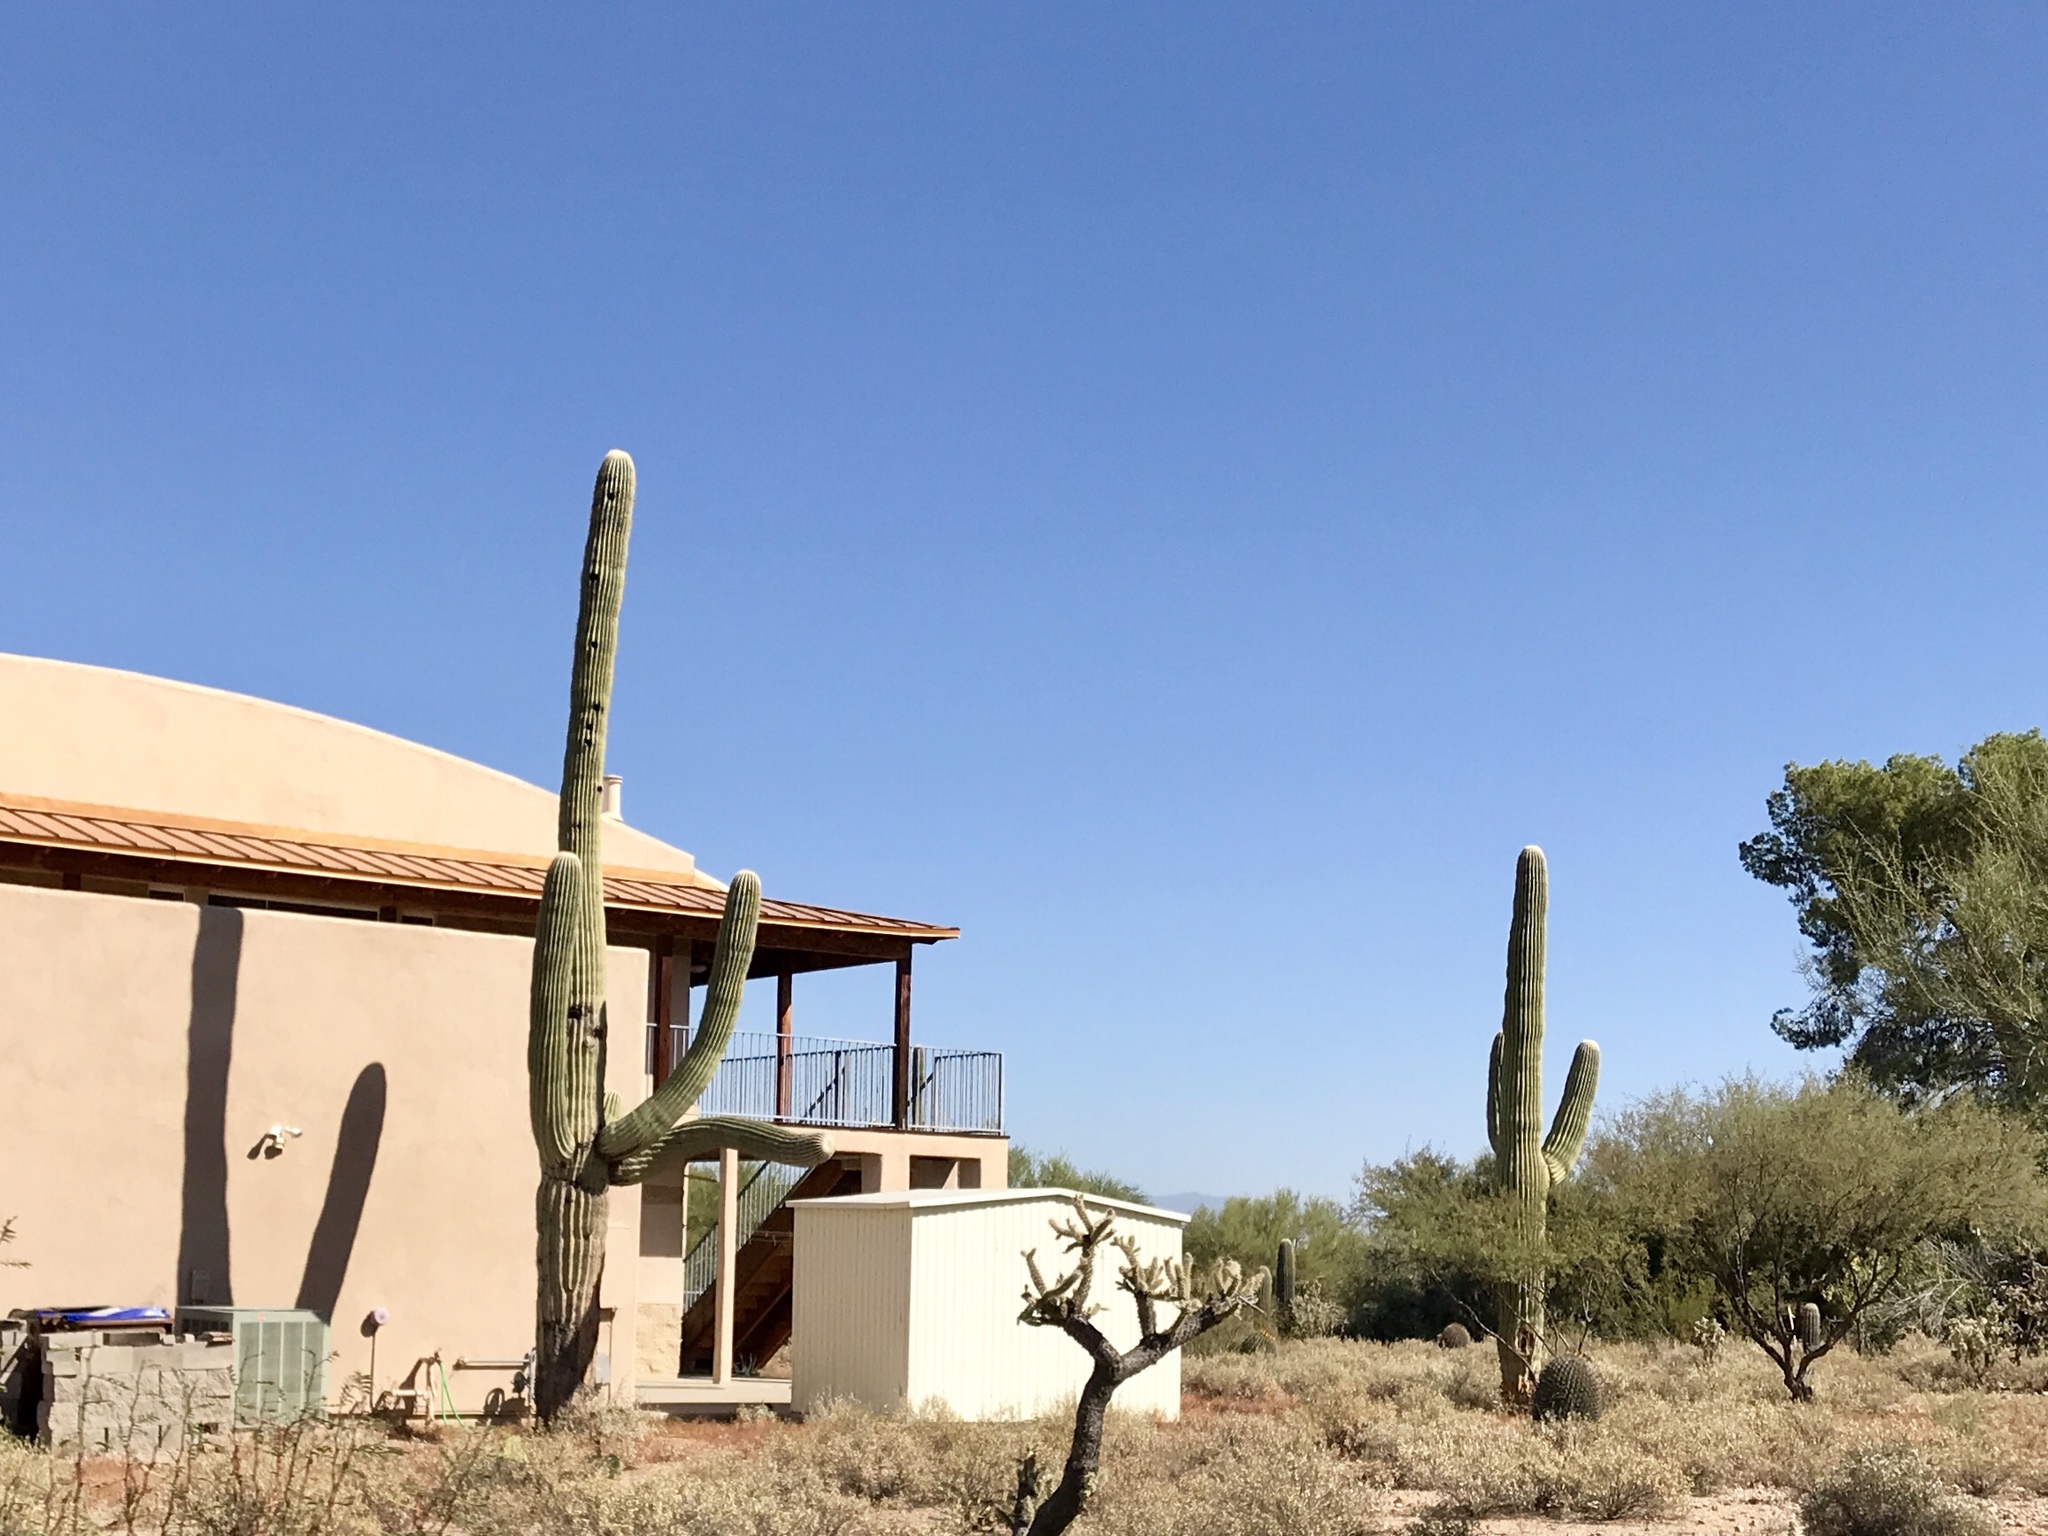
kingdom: Plantae
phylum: Tracheophyta
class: Magnoliopsida
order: Caryophyllales
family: Cactaceae
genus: Carnegiea
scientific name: Carnegiea gigantea
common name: Saguaro
